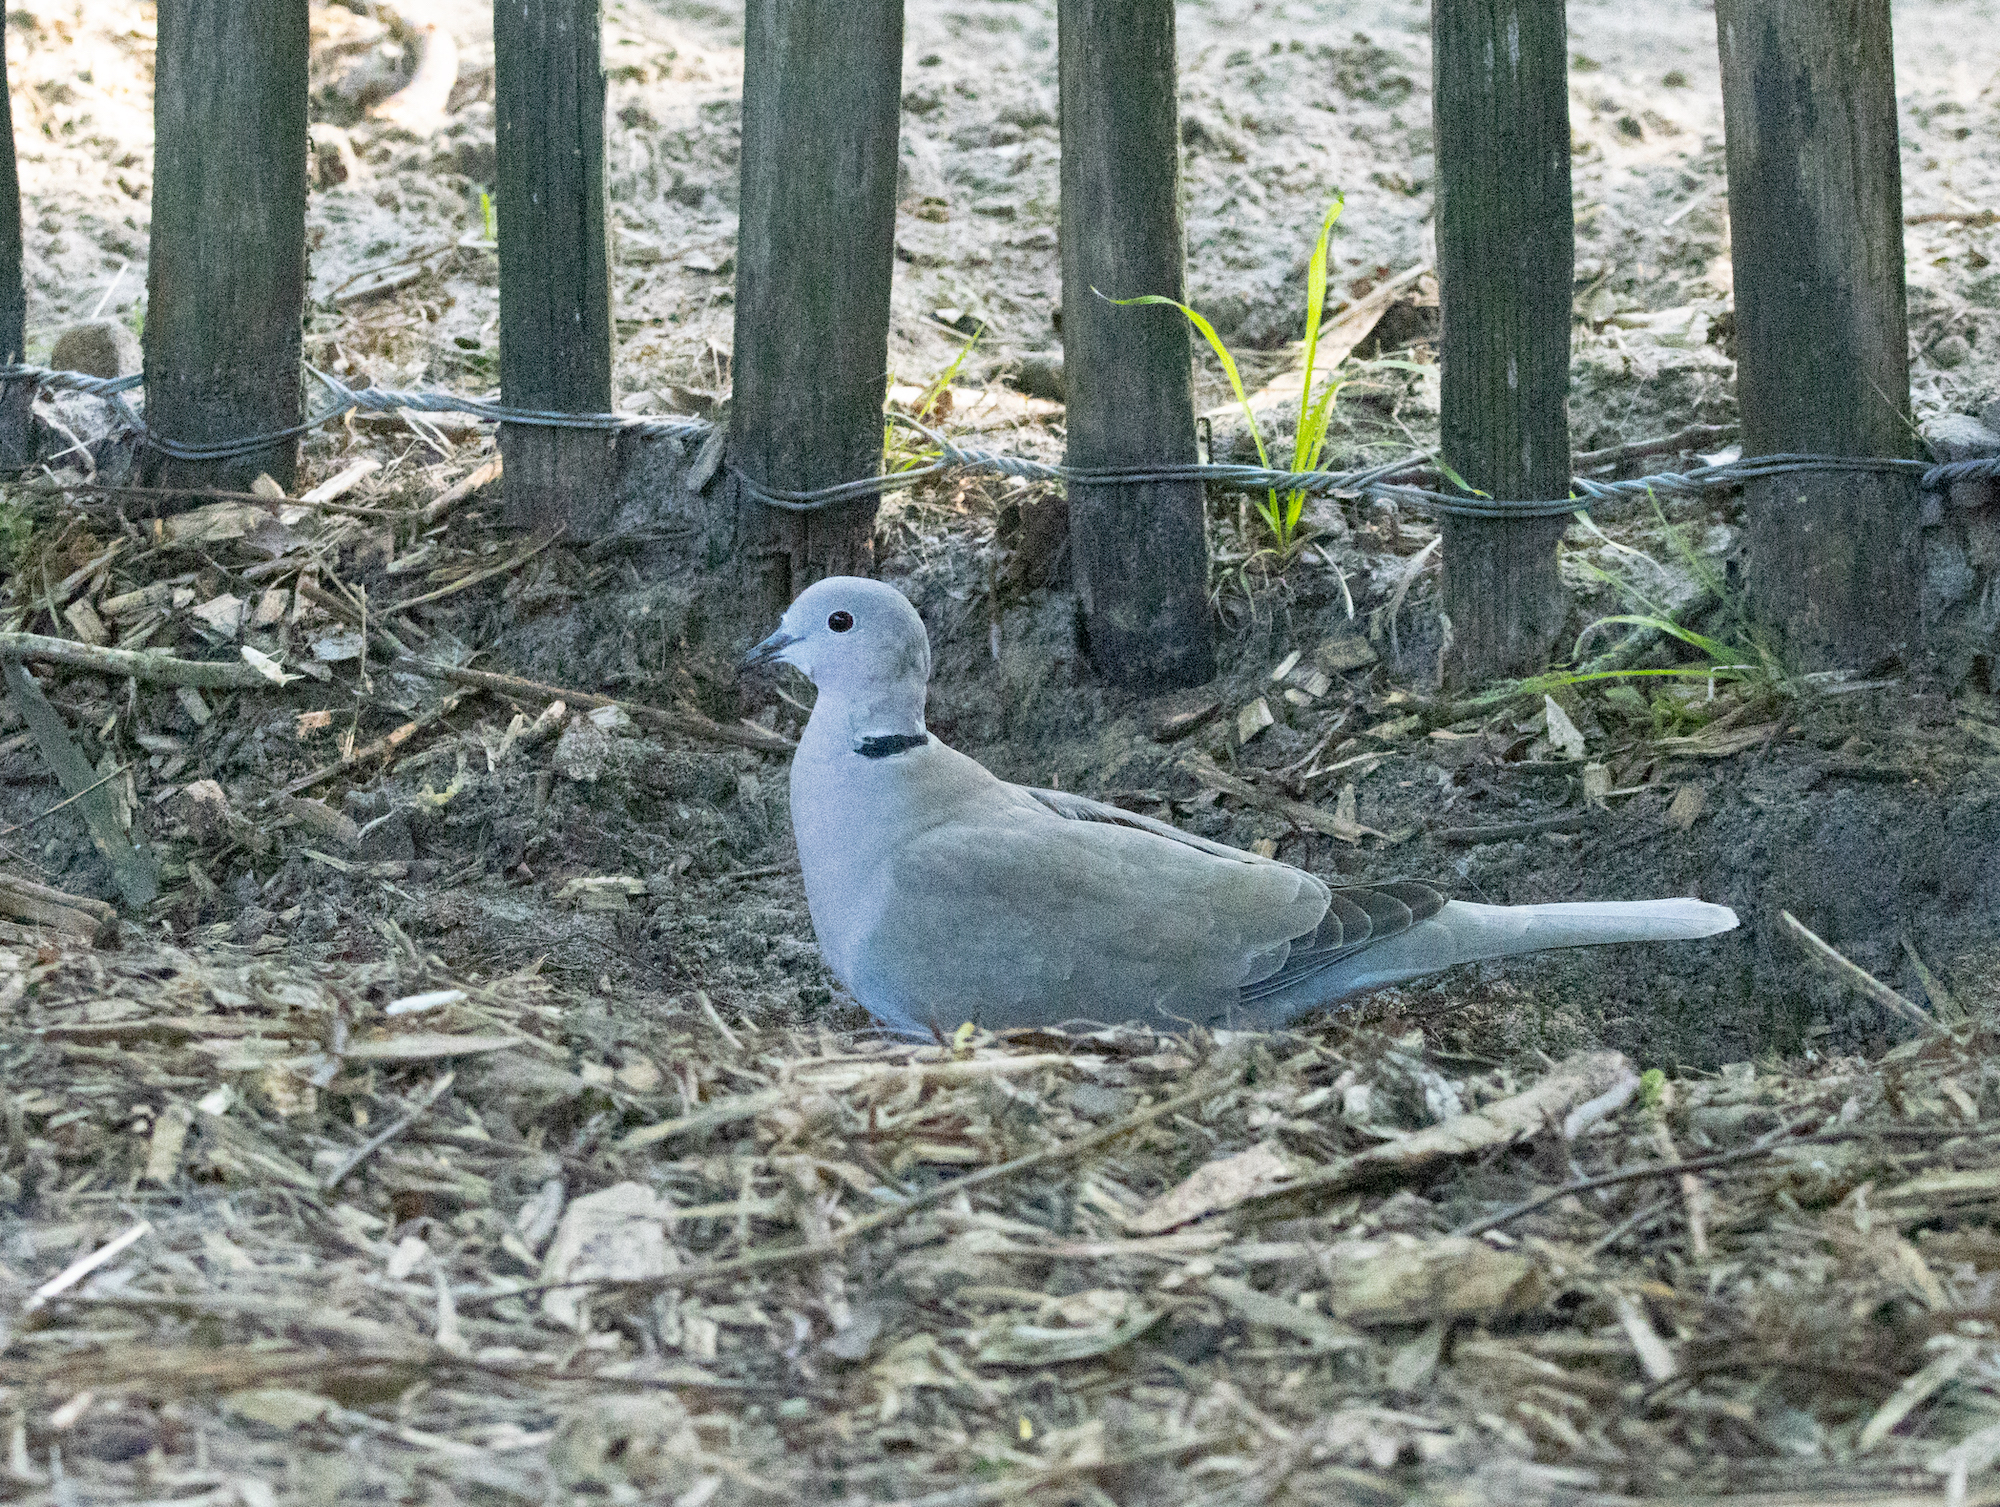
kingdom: Animalia
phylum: Chordata
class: Aves
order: Columbiformes
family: Columbidae
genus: Streptopelia
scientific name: Streptopelia decaocto
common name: Eurasian collared dove
